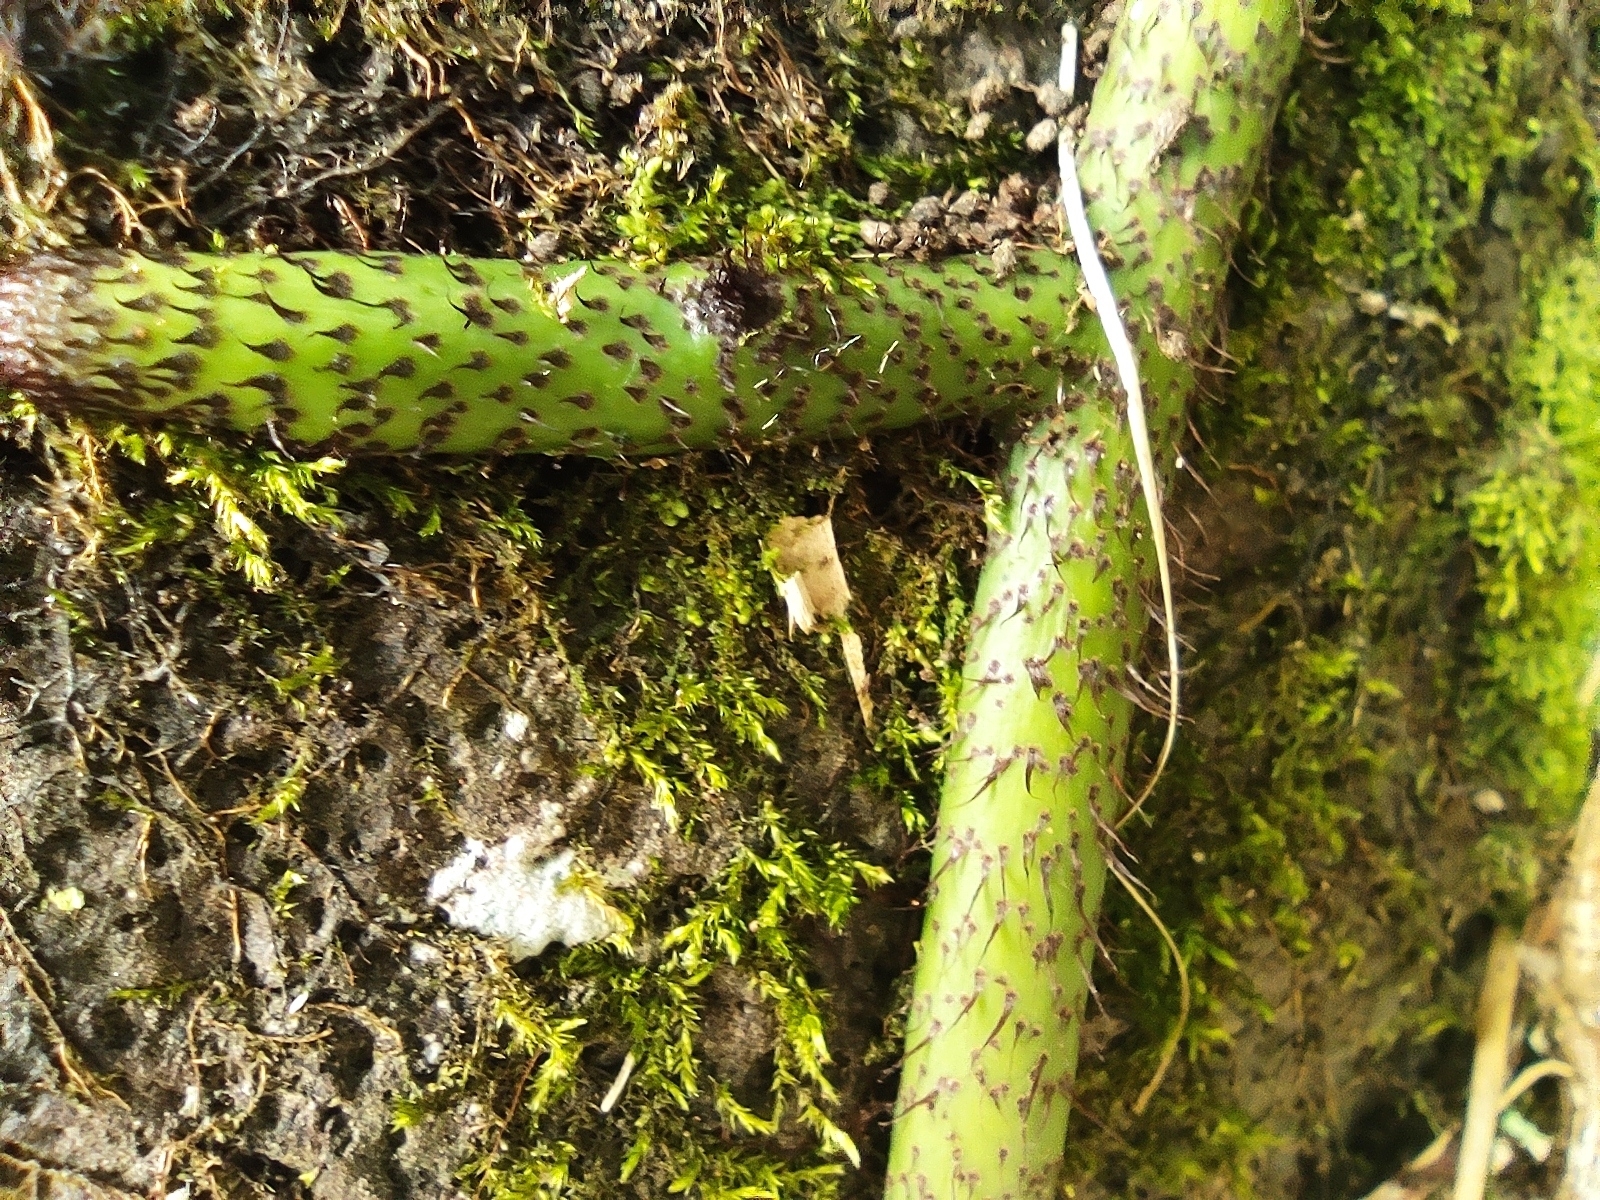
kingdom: Plantae
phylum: Tracheophyta
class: Polypodiopsida
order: Polypodiales
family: Polypodiaceae
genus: Microsorum
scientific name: Microsorum scolopendria
